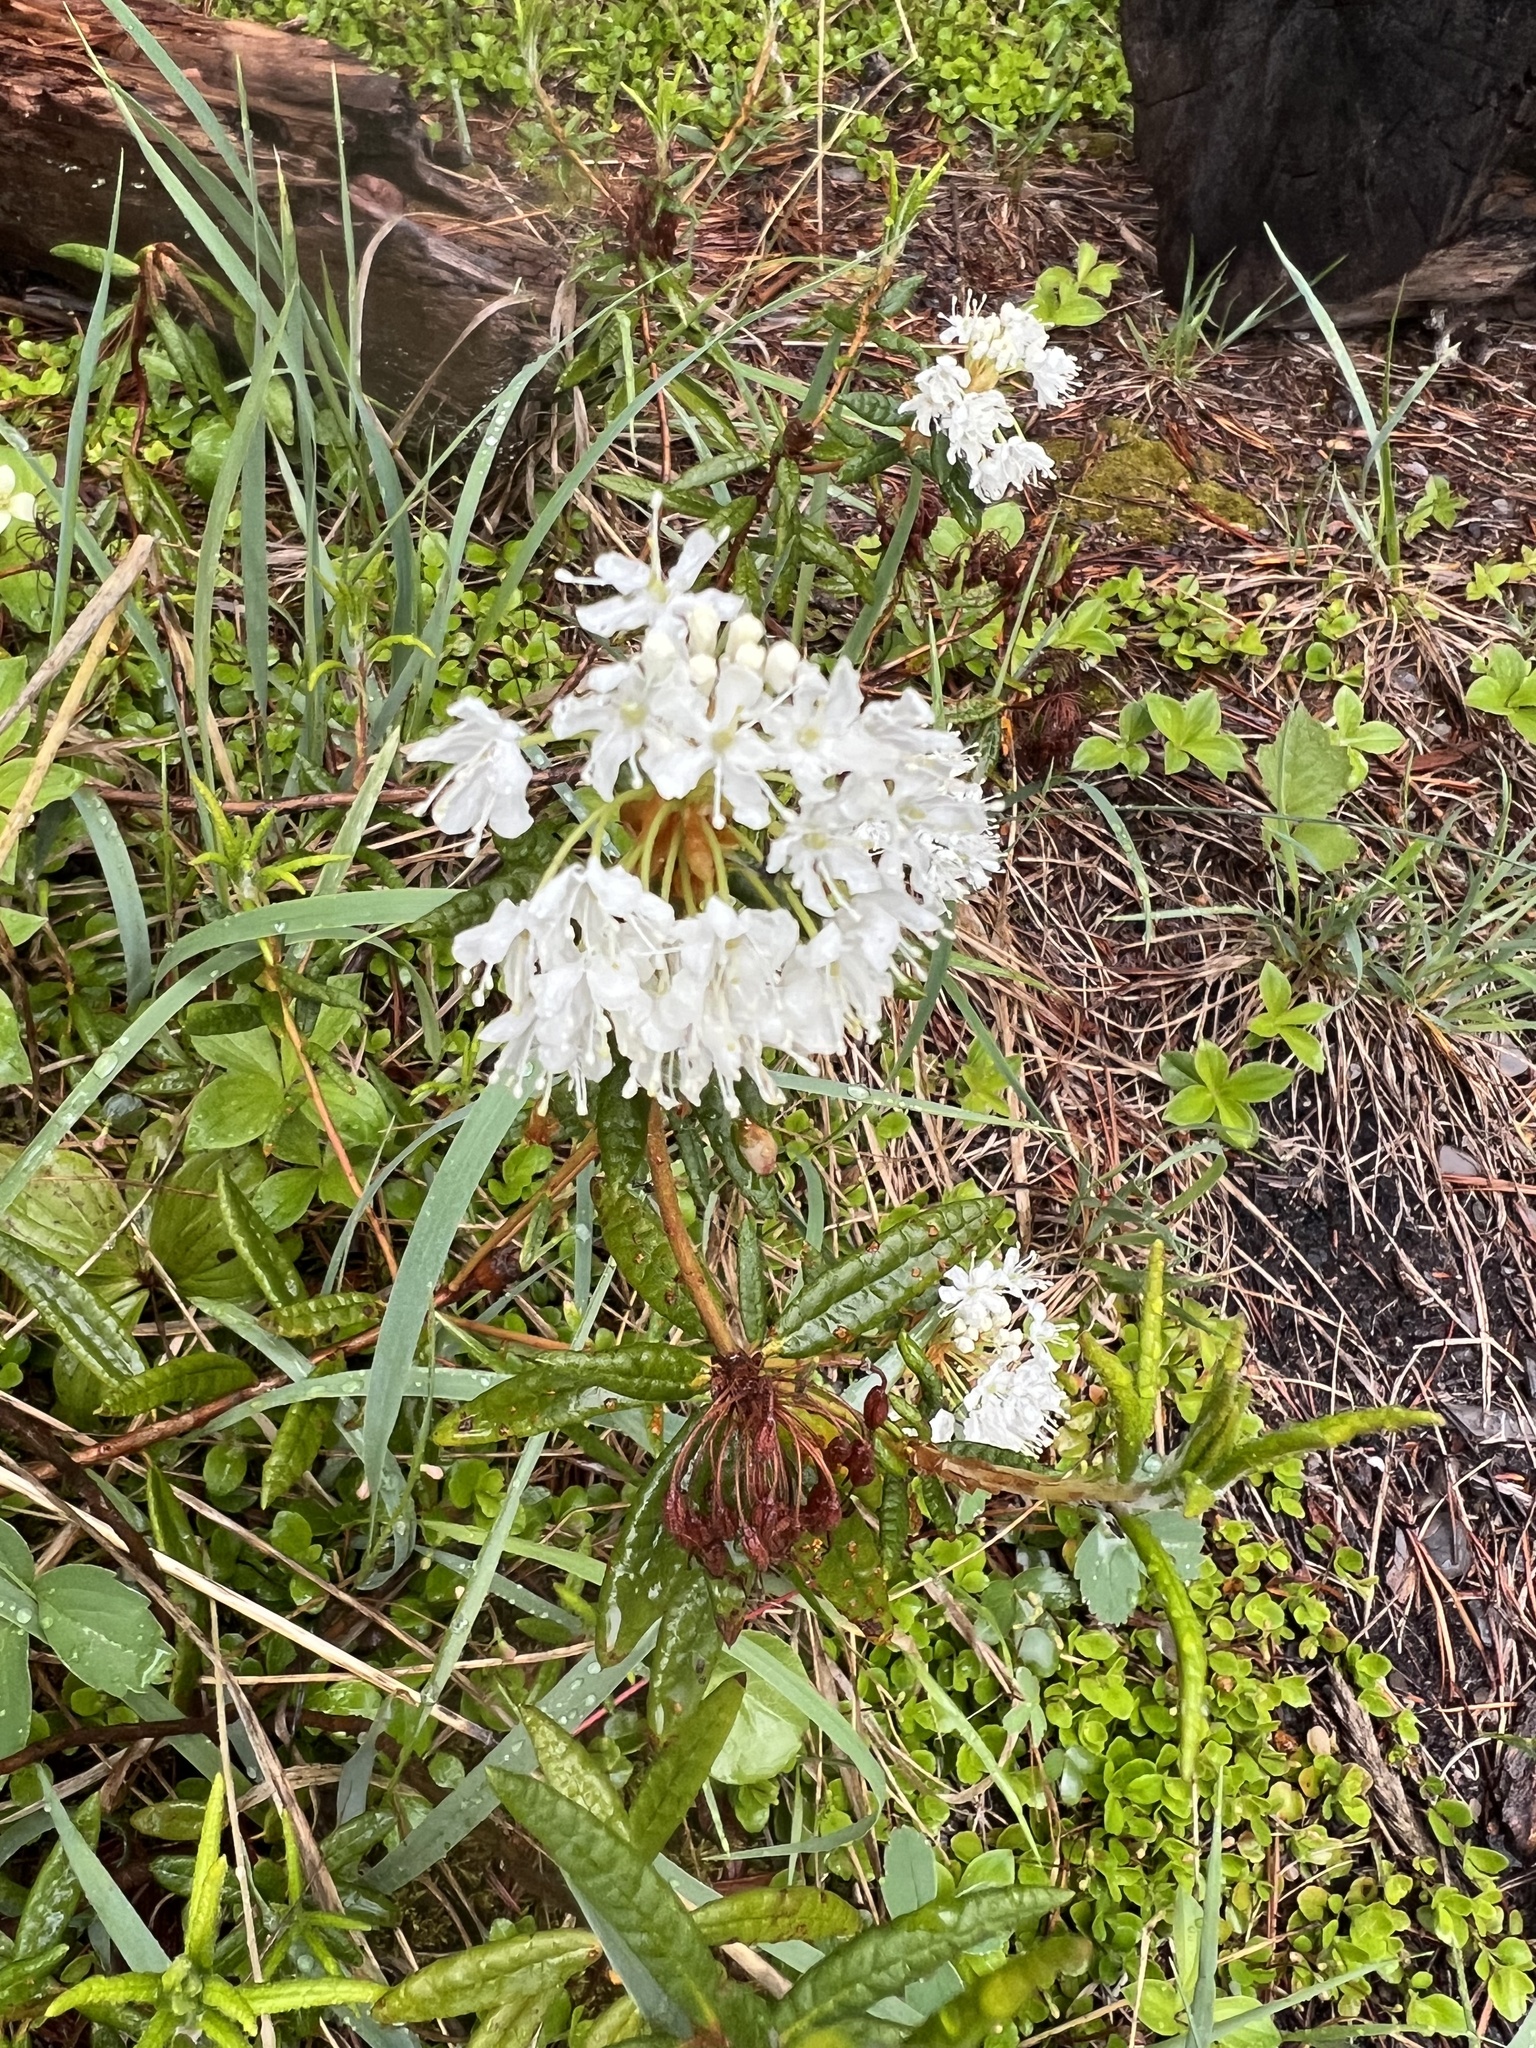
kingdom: Plantae
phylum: Tracheophyta
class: Magnoliopsida
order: Ericales
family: Ericaceae
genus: Rhododendron
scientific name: Rhododendron groenlandicum
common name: Bog labrador tea
